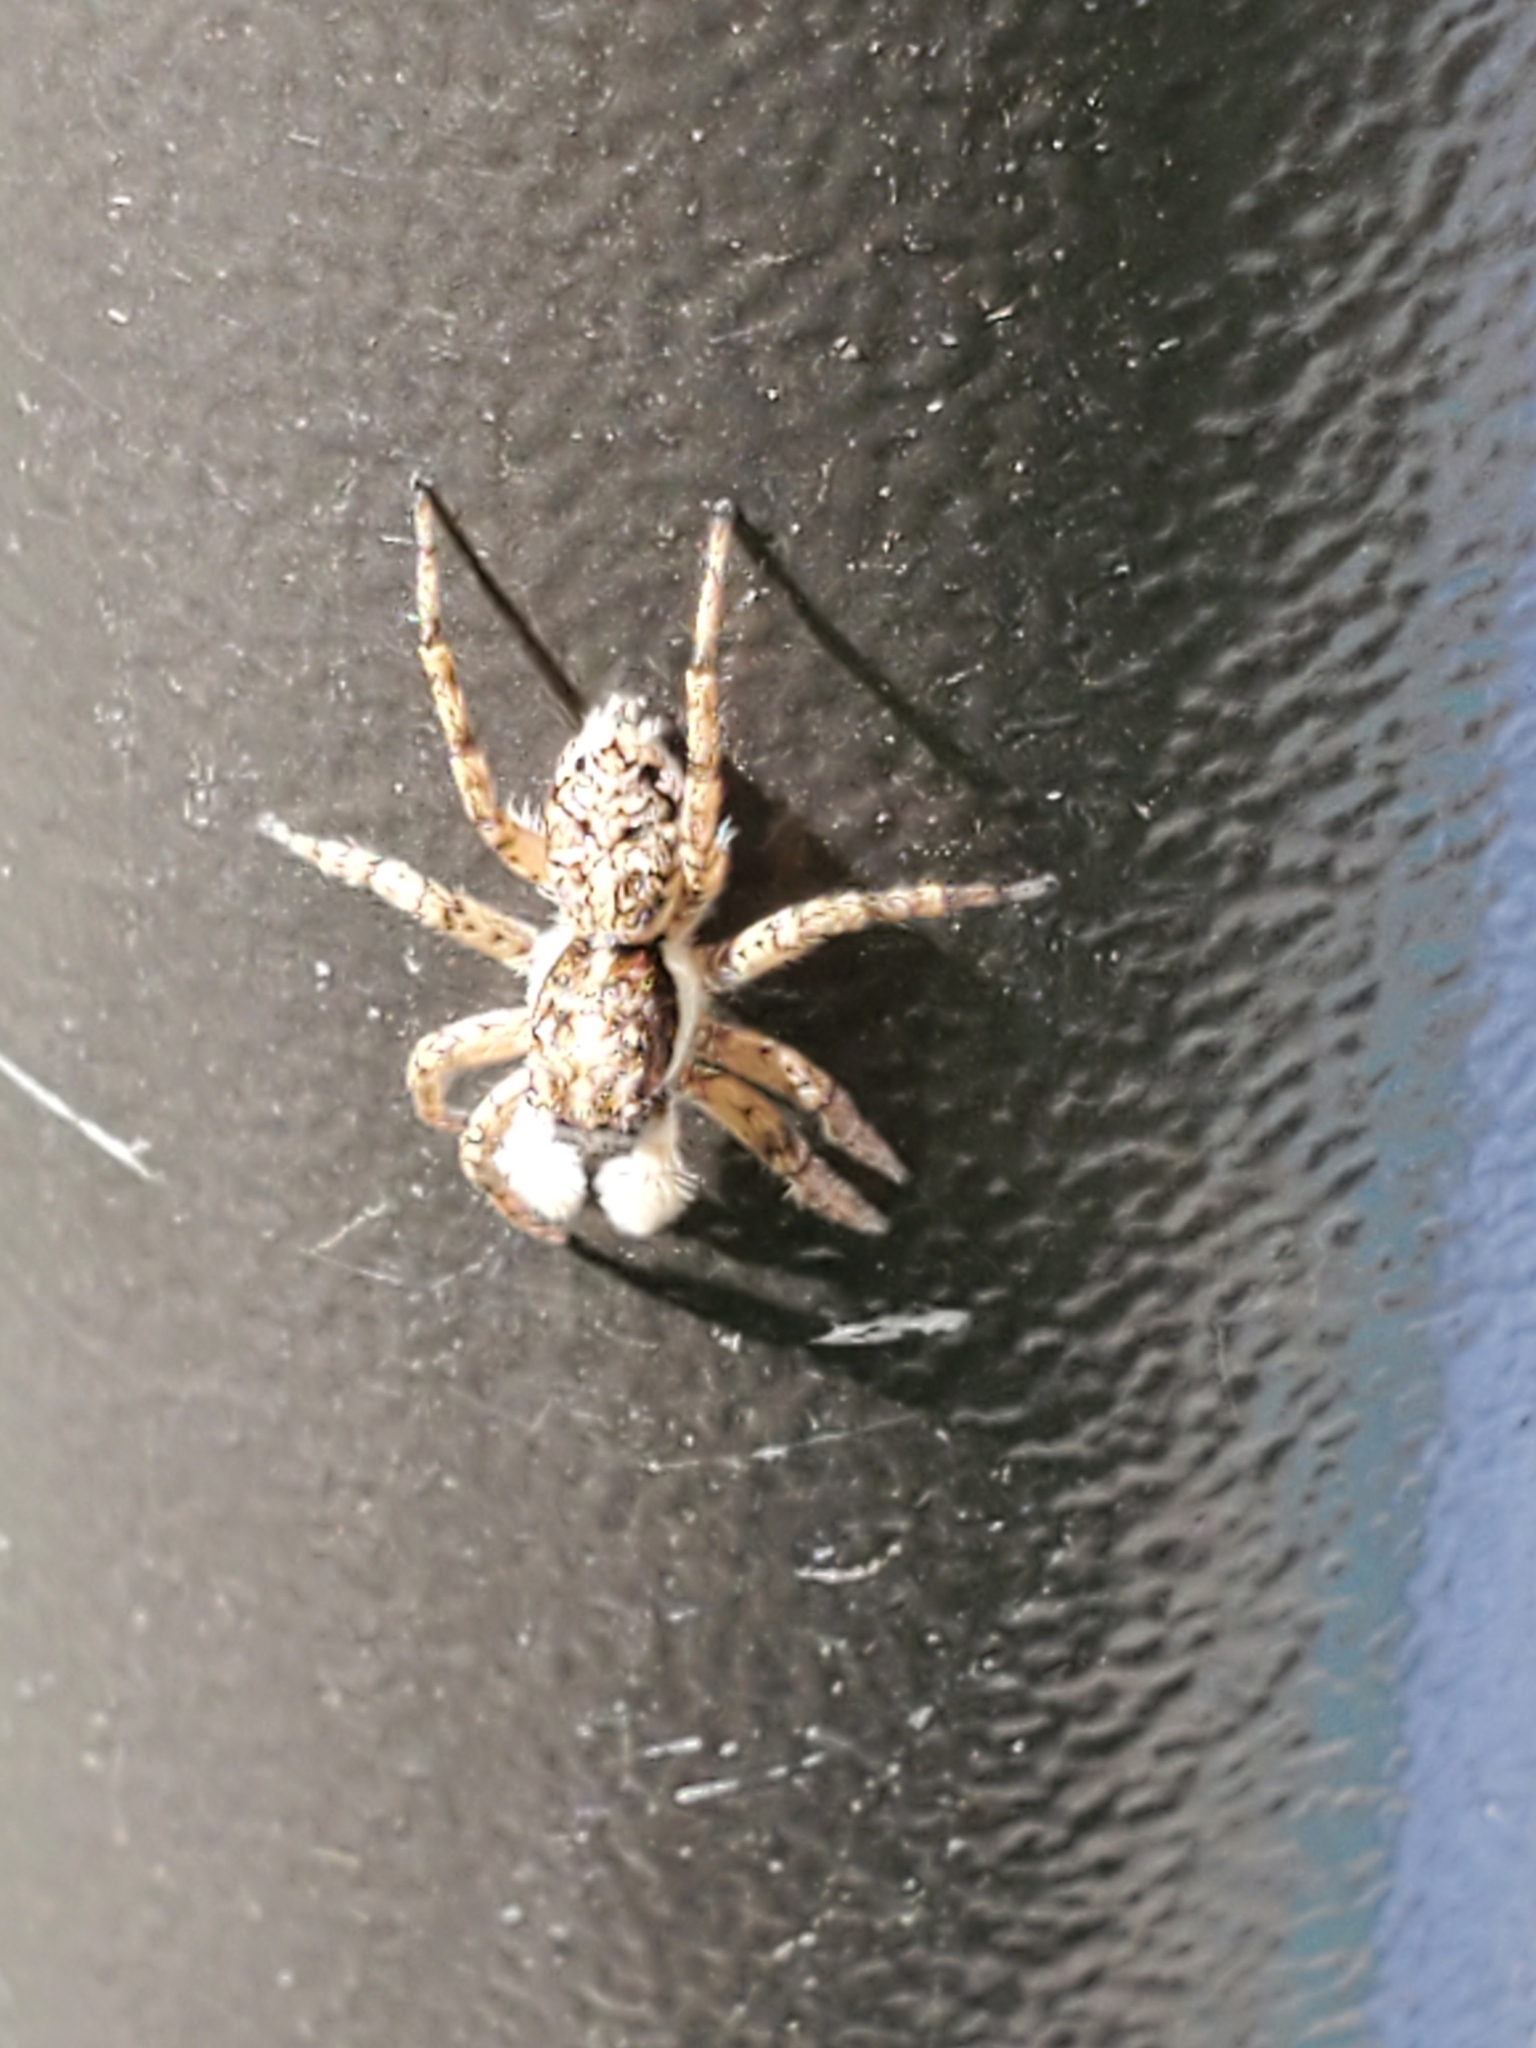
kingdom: Animalia
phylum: Arthropoda
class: Arachnida
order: Araneae
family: Salticidae
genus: Menemerus
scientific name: Menemerus semilimbatus
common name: Jumping spider
